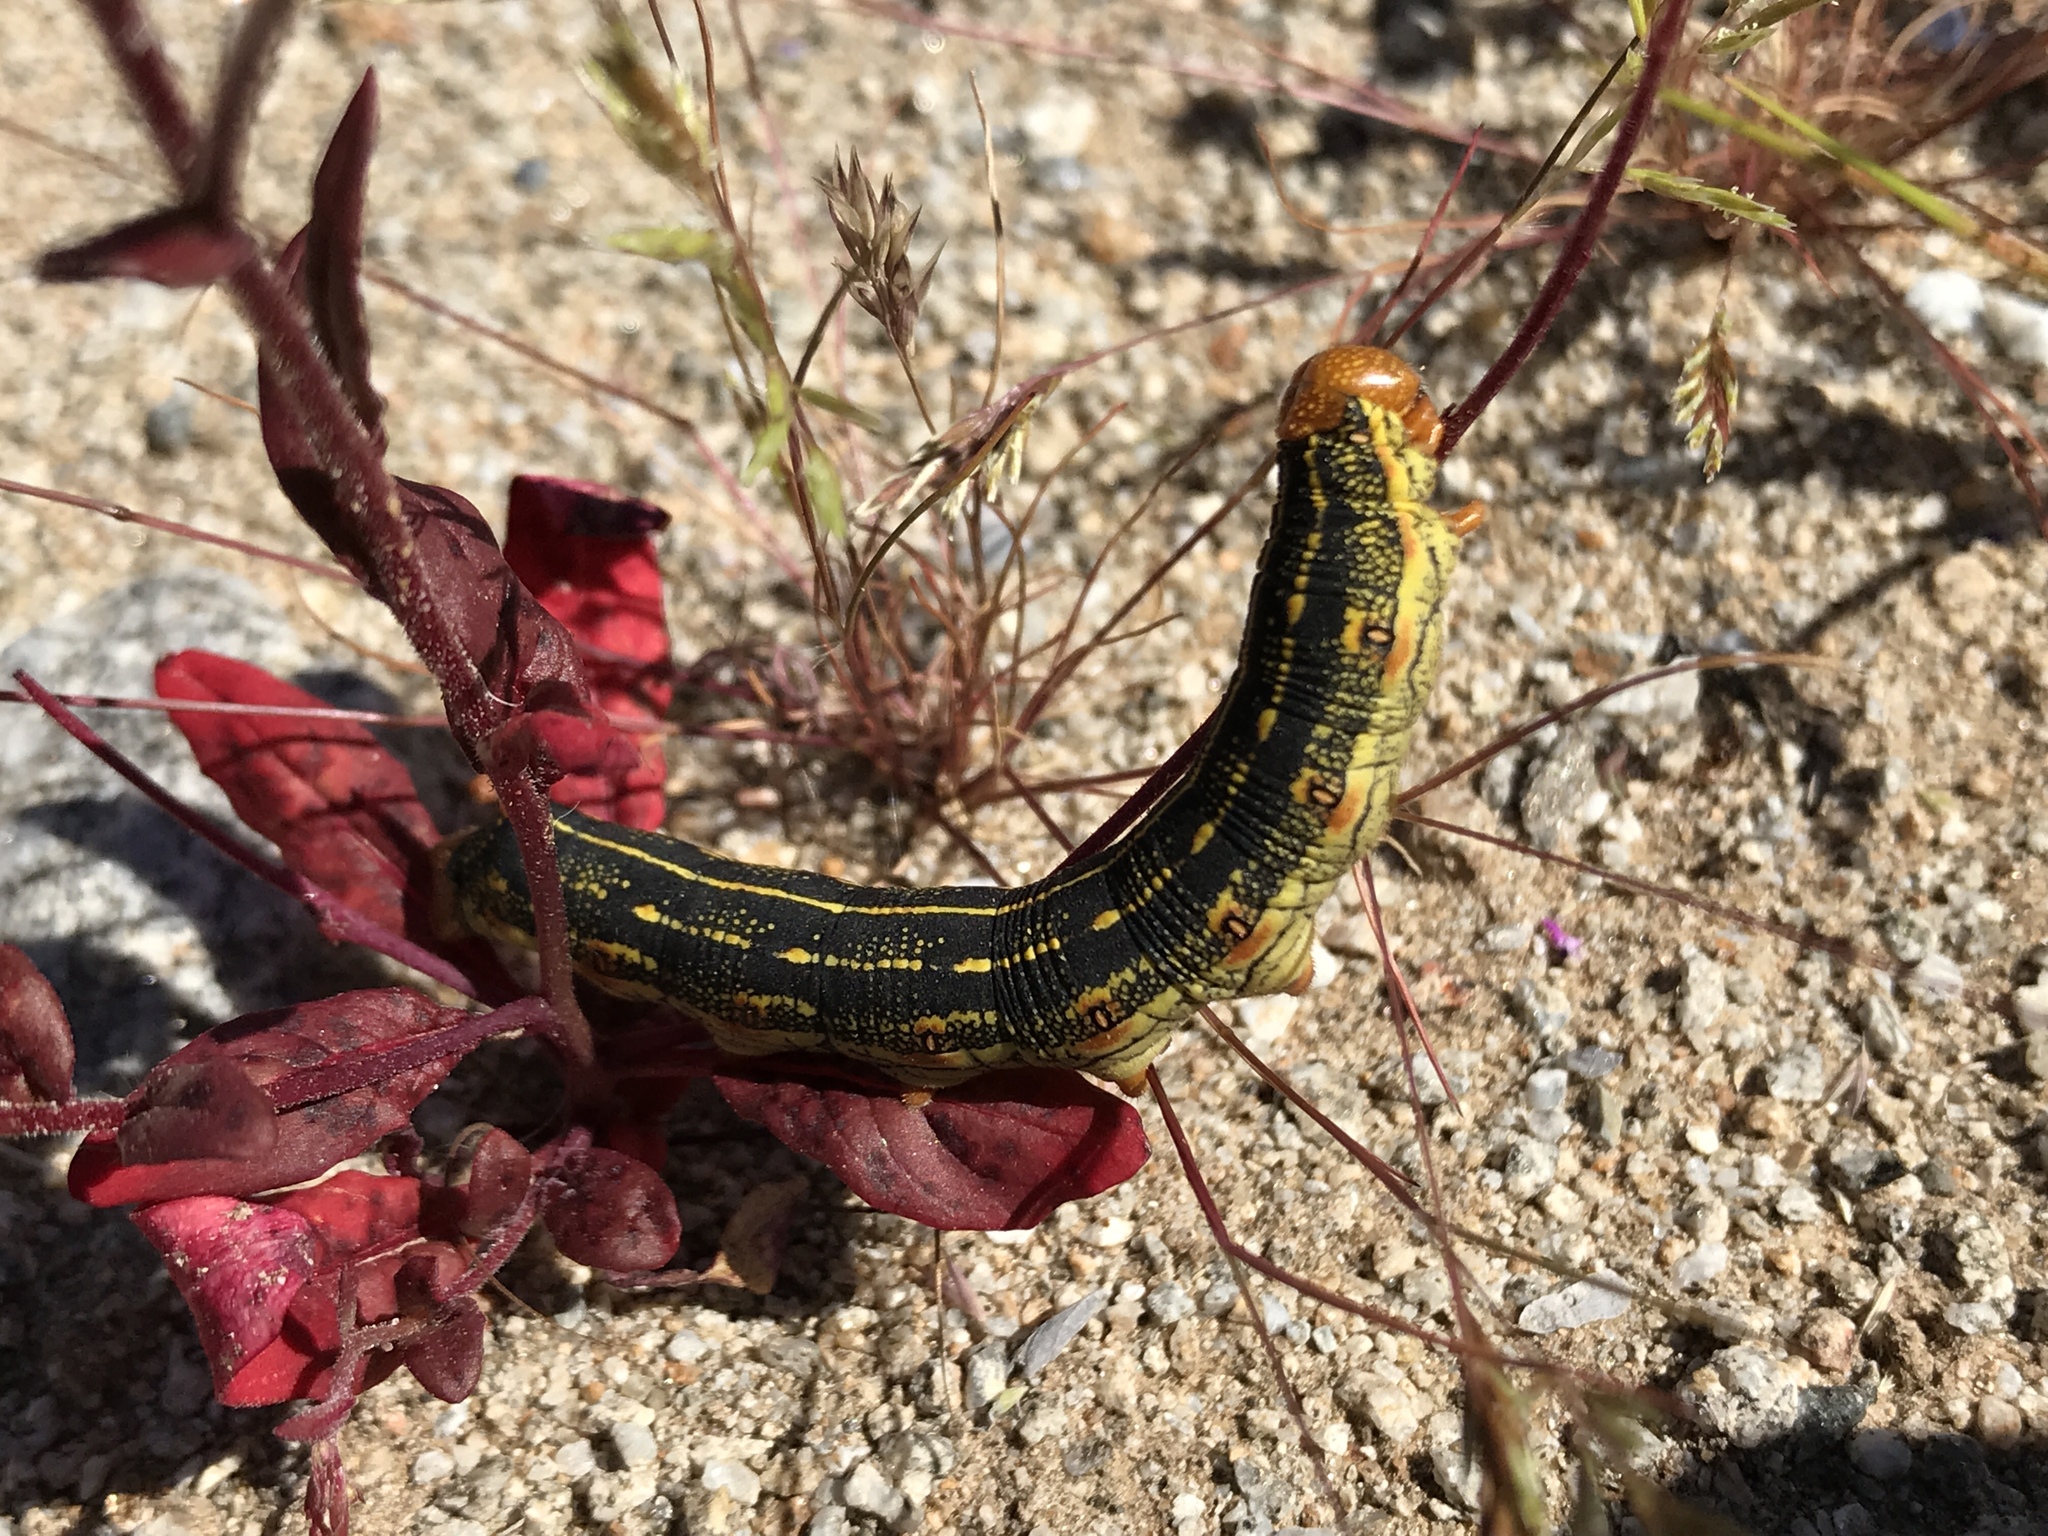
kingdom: Animalia
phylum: Arthropoda
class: Insecta
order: Lepidoptera
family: Sphingidae
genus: Hyles
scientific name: Hyles lineata
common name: White-lined sphinx
